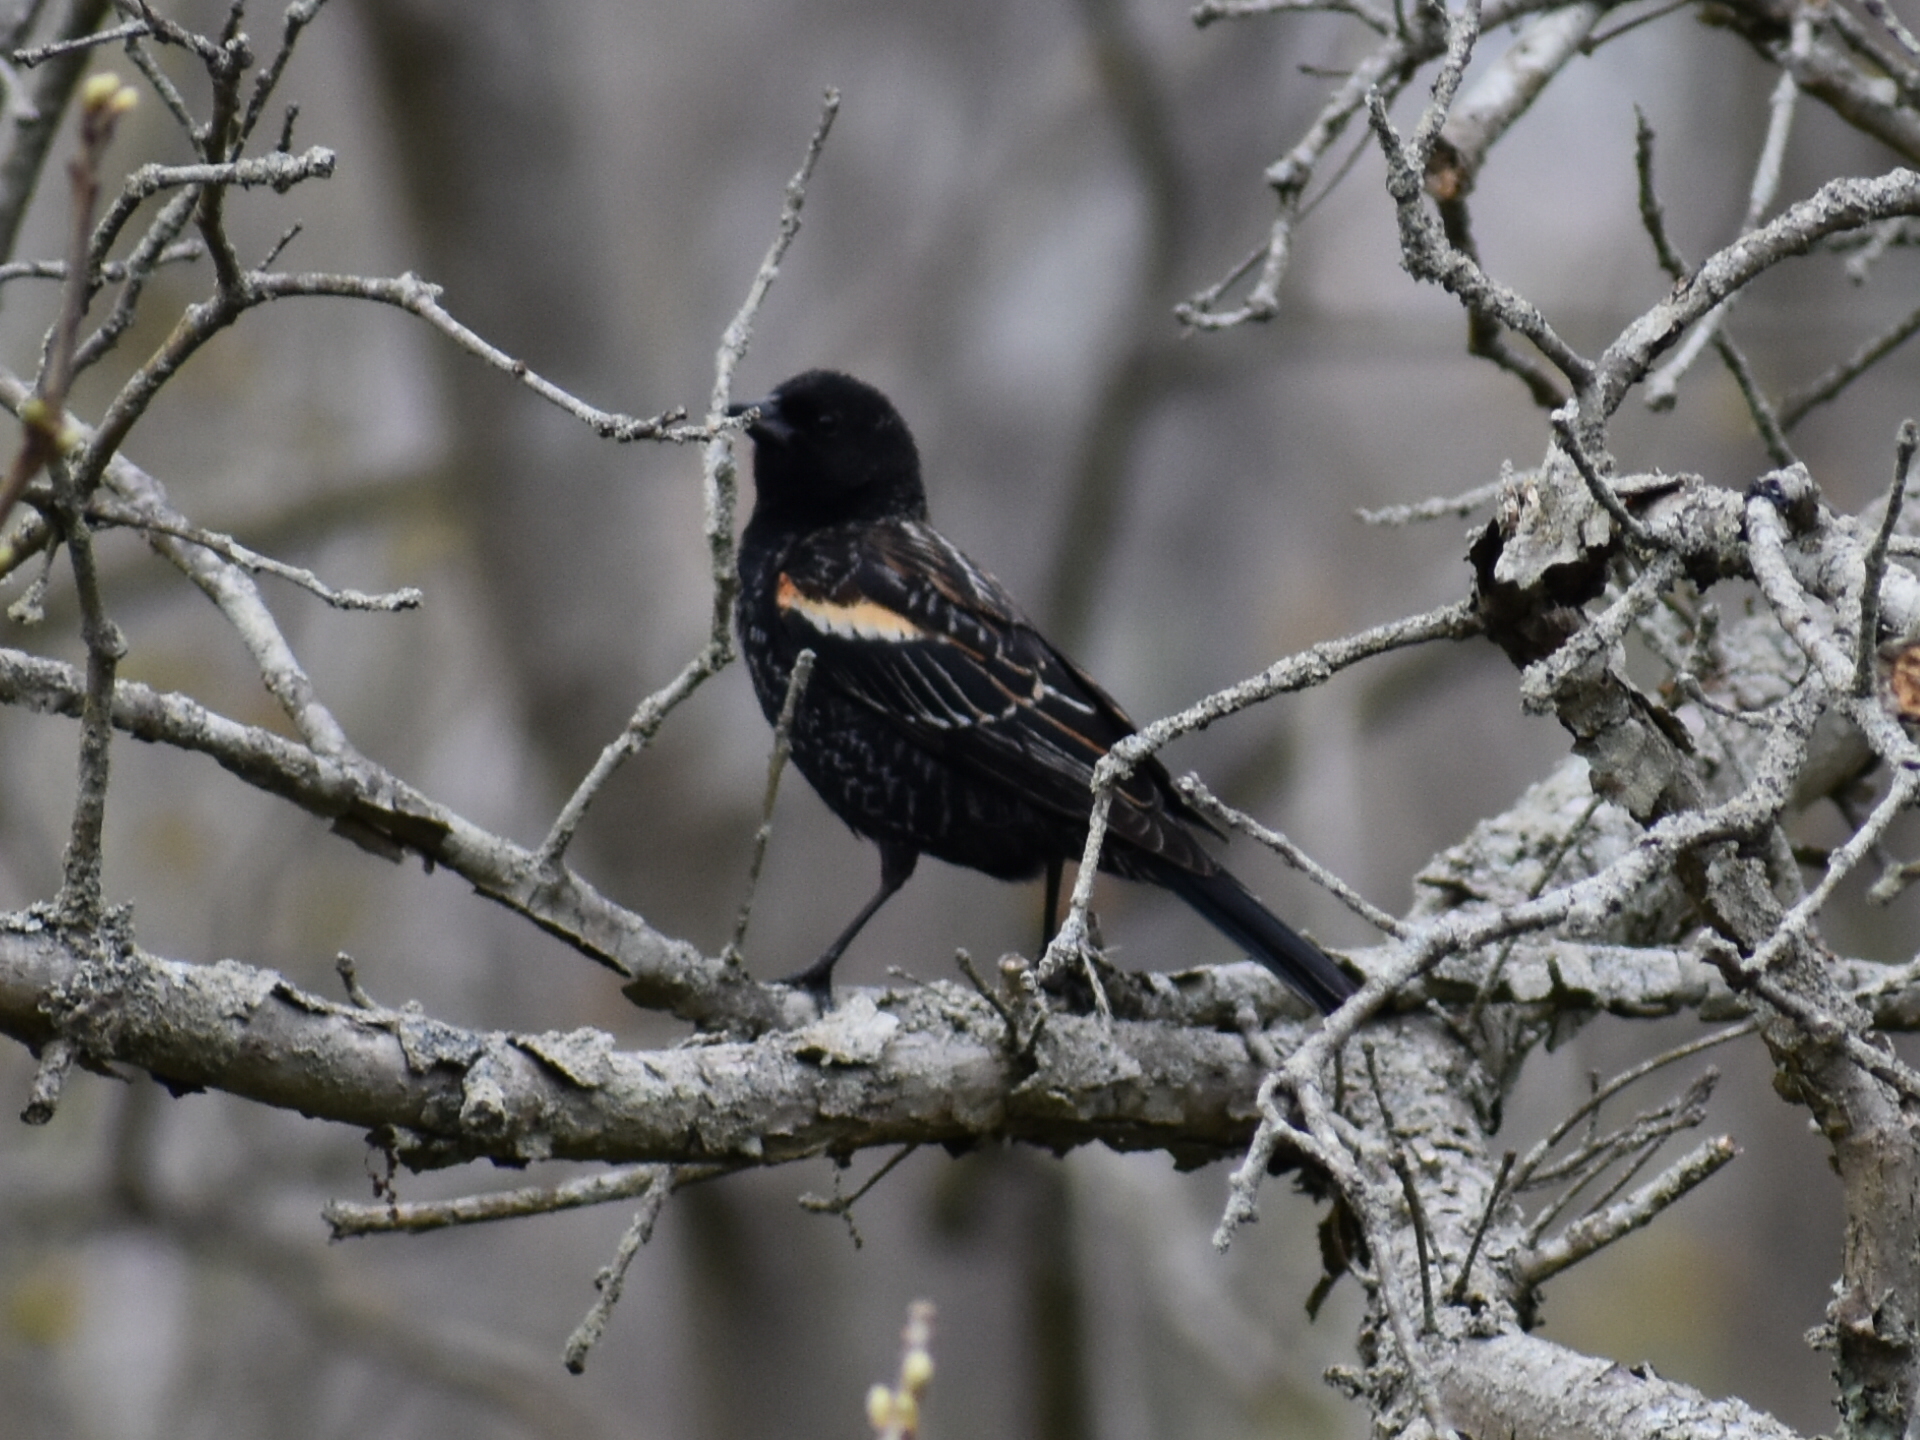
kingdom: Animalia
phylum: Chordata
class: Aves
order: Passeriformes
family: Icteridae
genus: Agelaius
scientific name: Agelaius phoeniceus
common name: Red-winged blackbird
